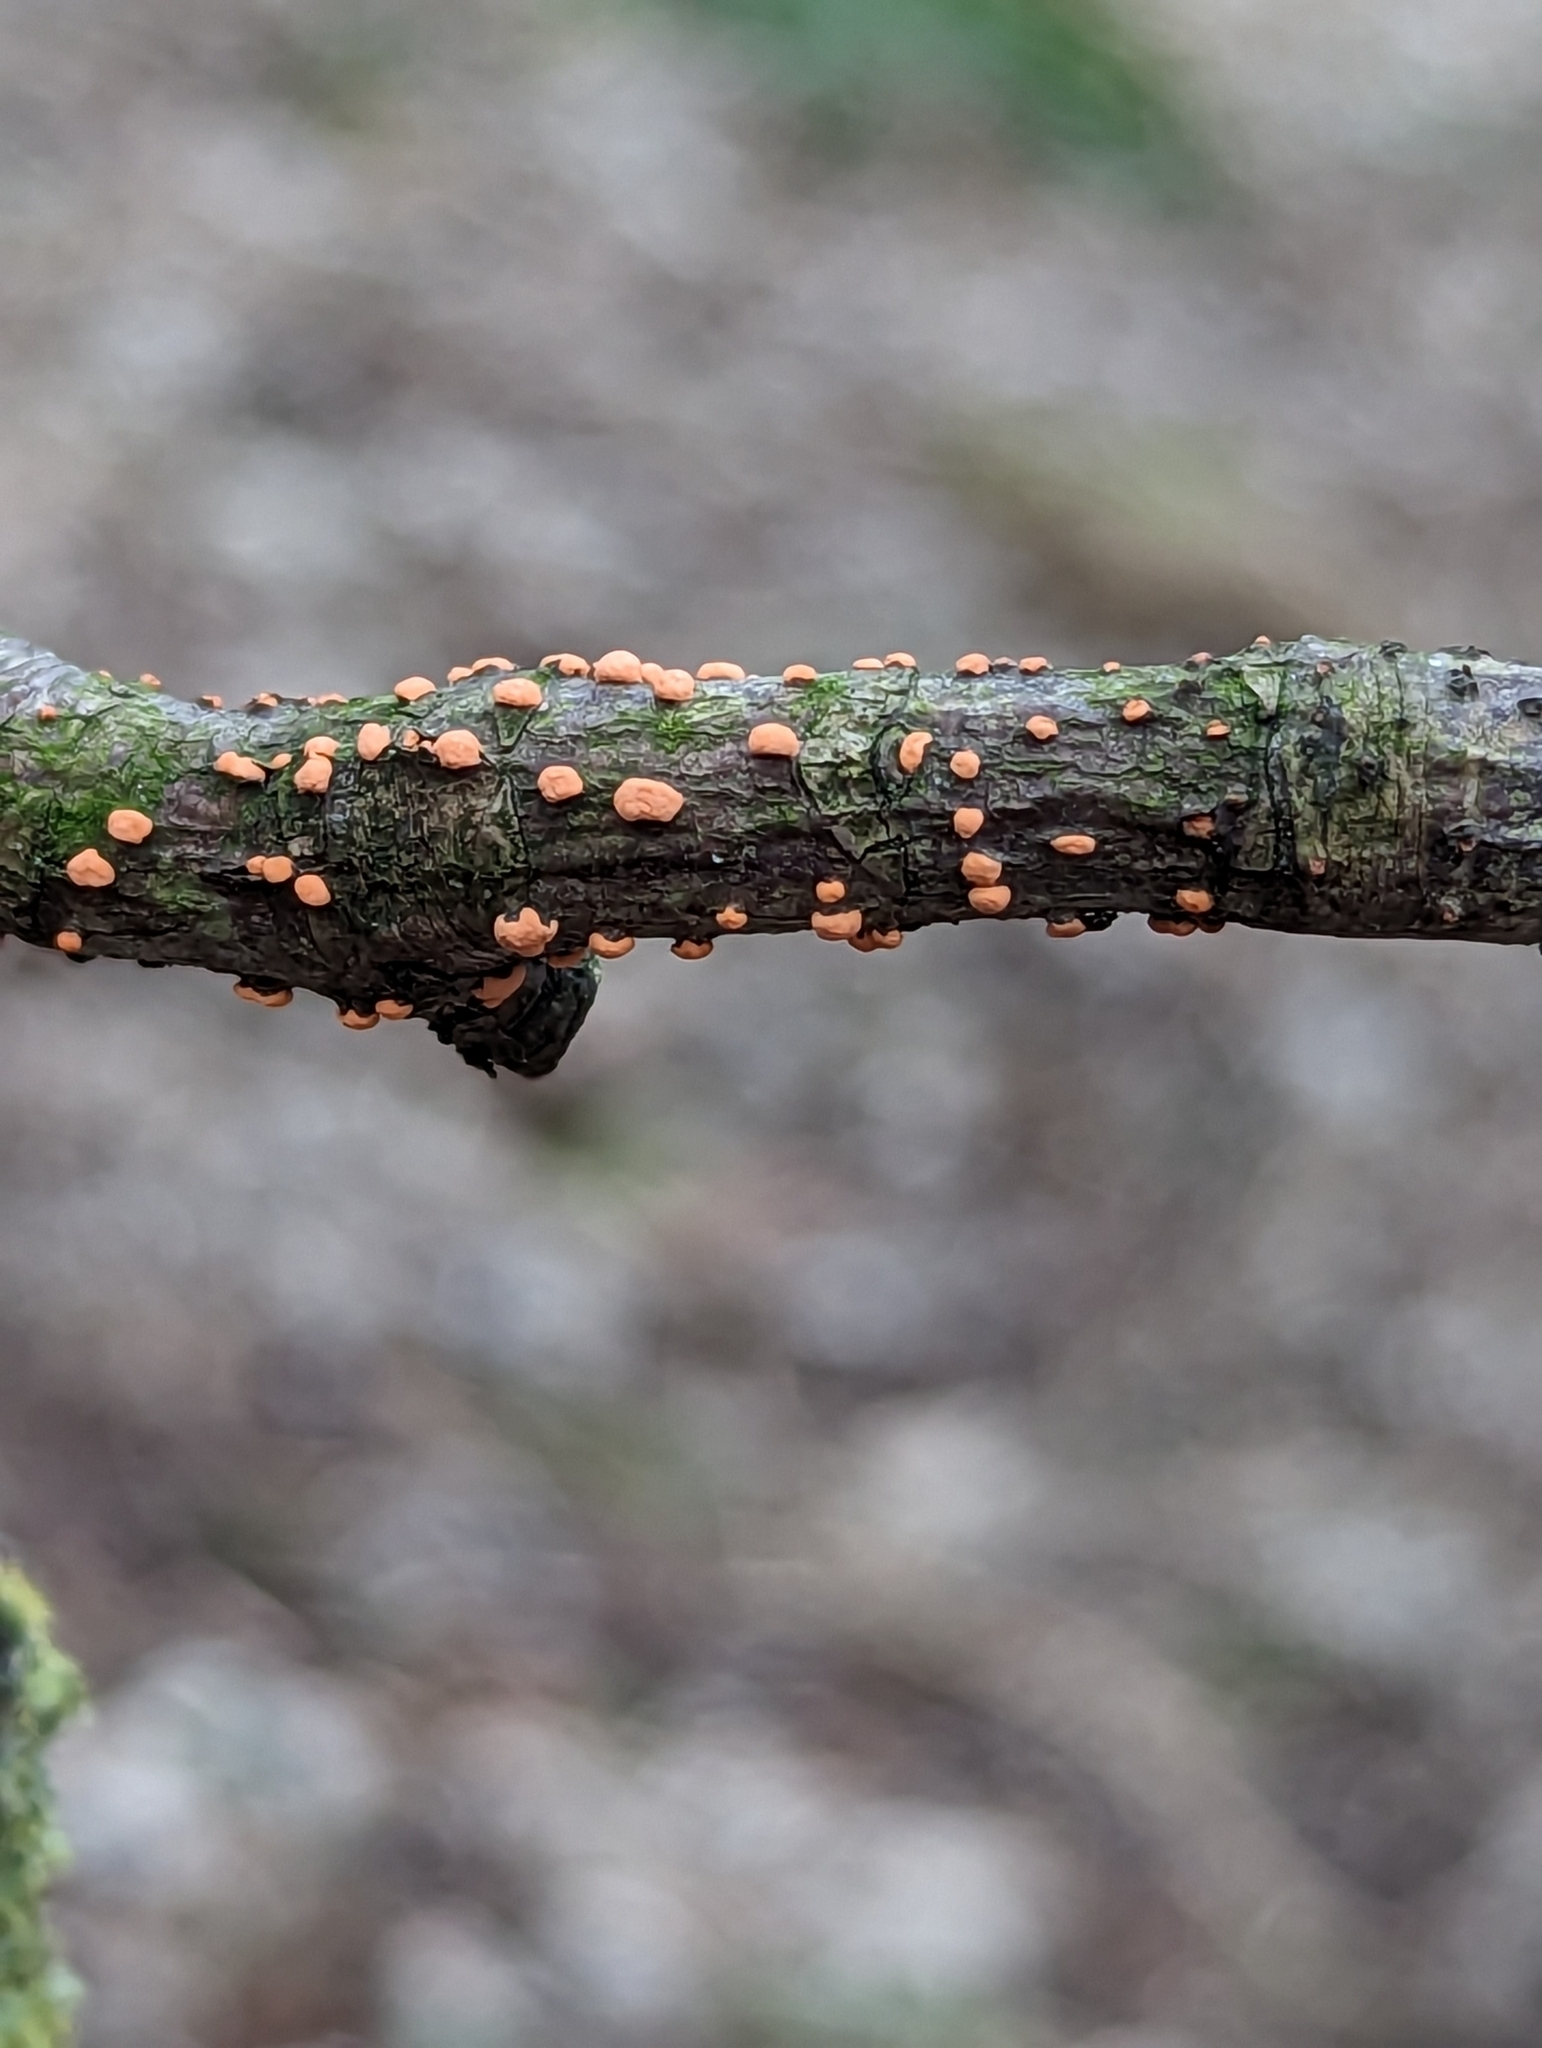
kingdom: Fungi
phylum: Ascomycota
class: Sordariomycetes
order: Hypocreales
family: Nectriaceae
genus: Nectria
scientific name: Nectria cinnabarina
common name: Coral spot
